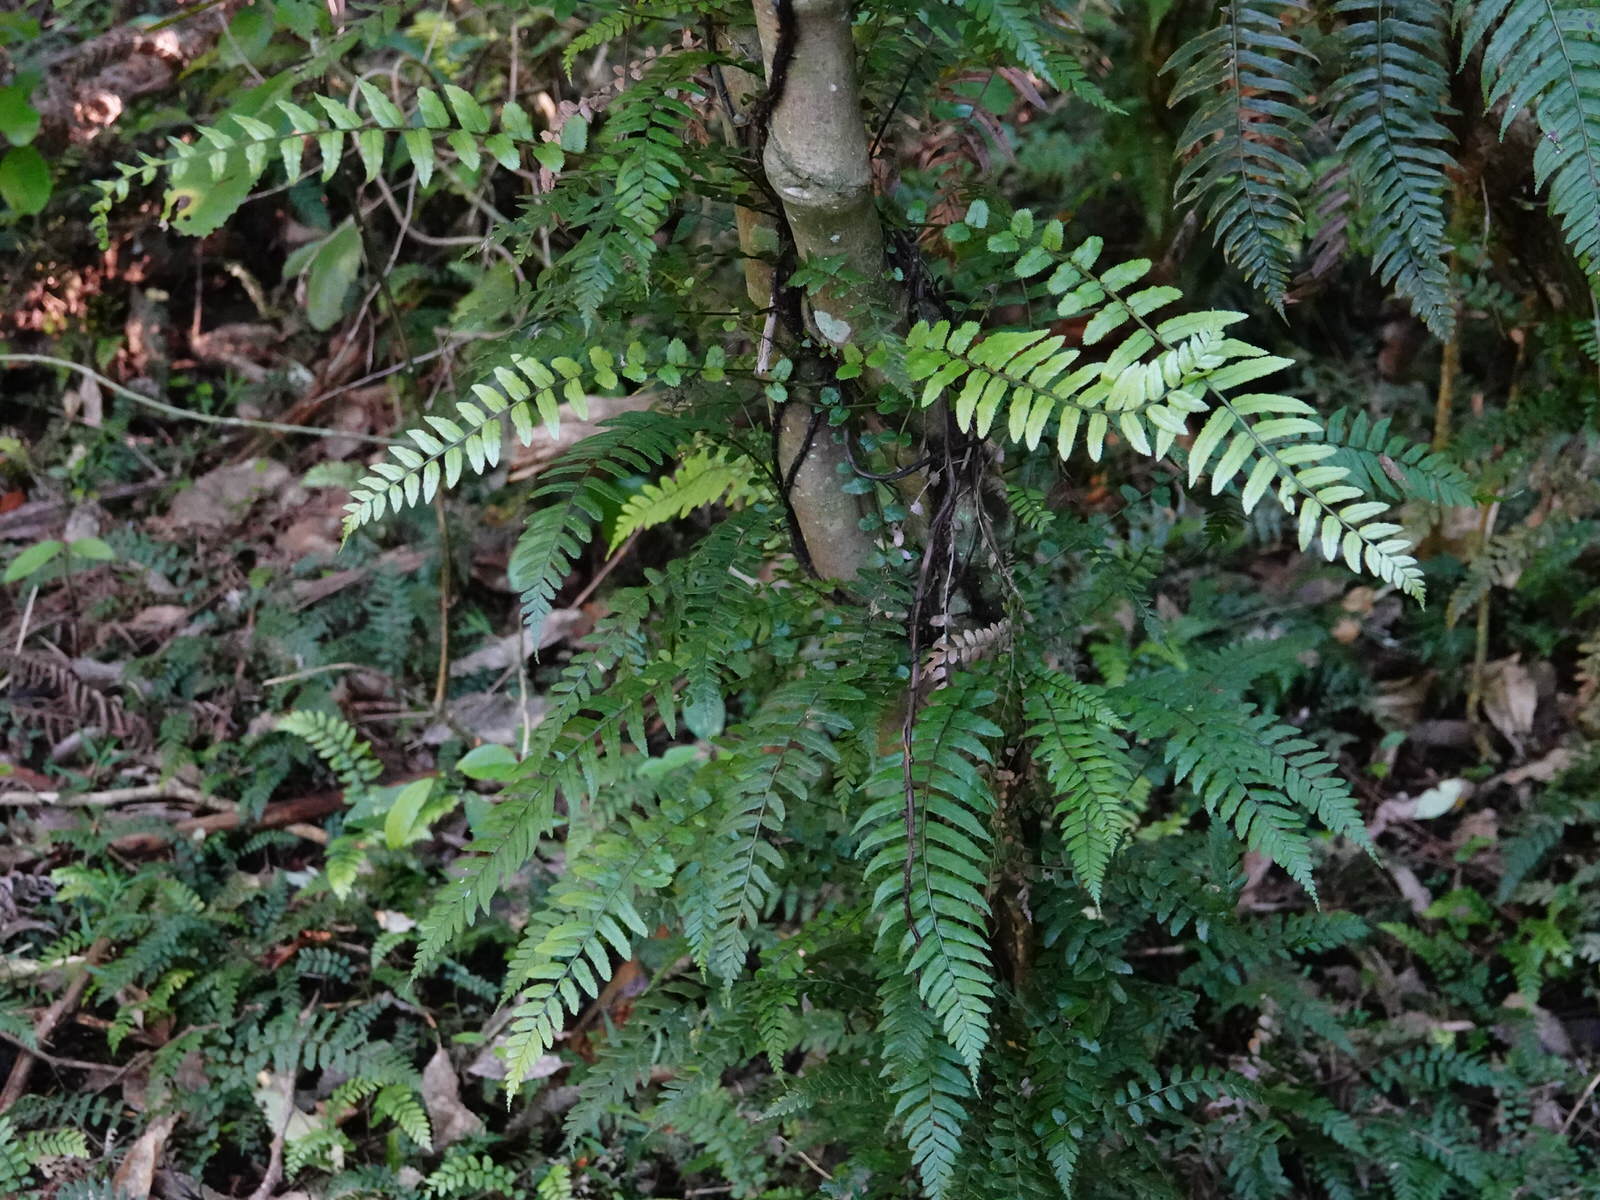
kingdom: Plantae
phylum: Tracheophyta
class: Polypodiopsida
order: Polypodiales
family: Blechnaceae
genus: Icarus
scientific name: Icarus filiformis
